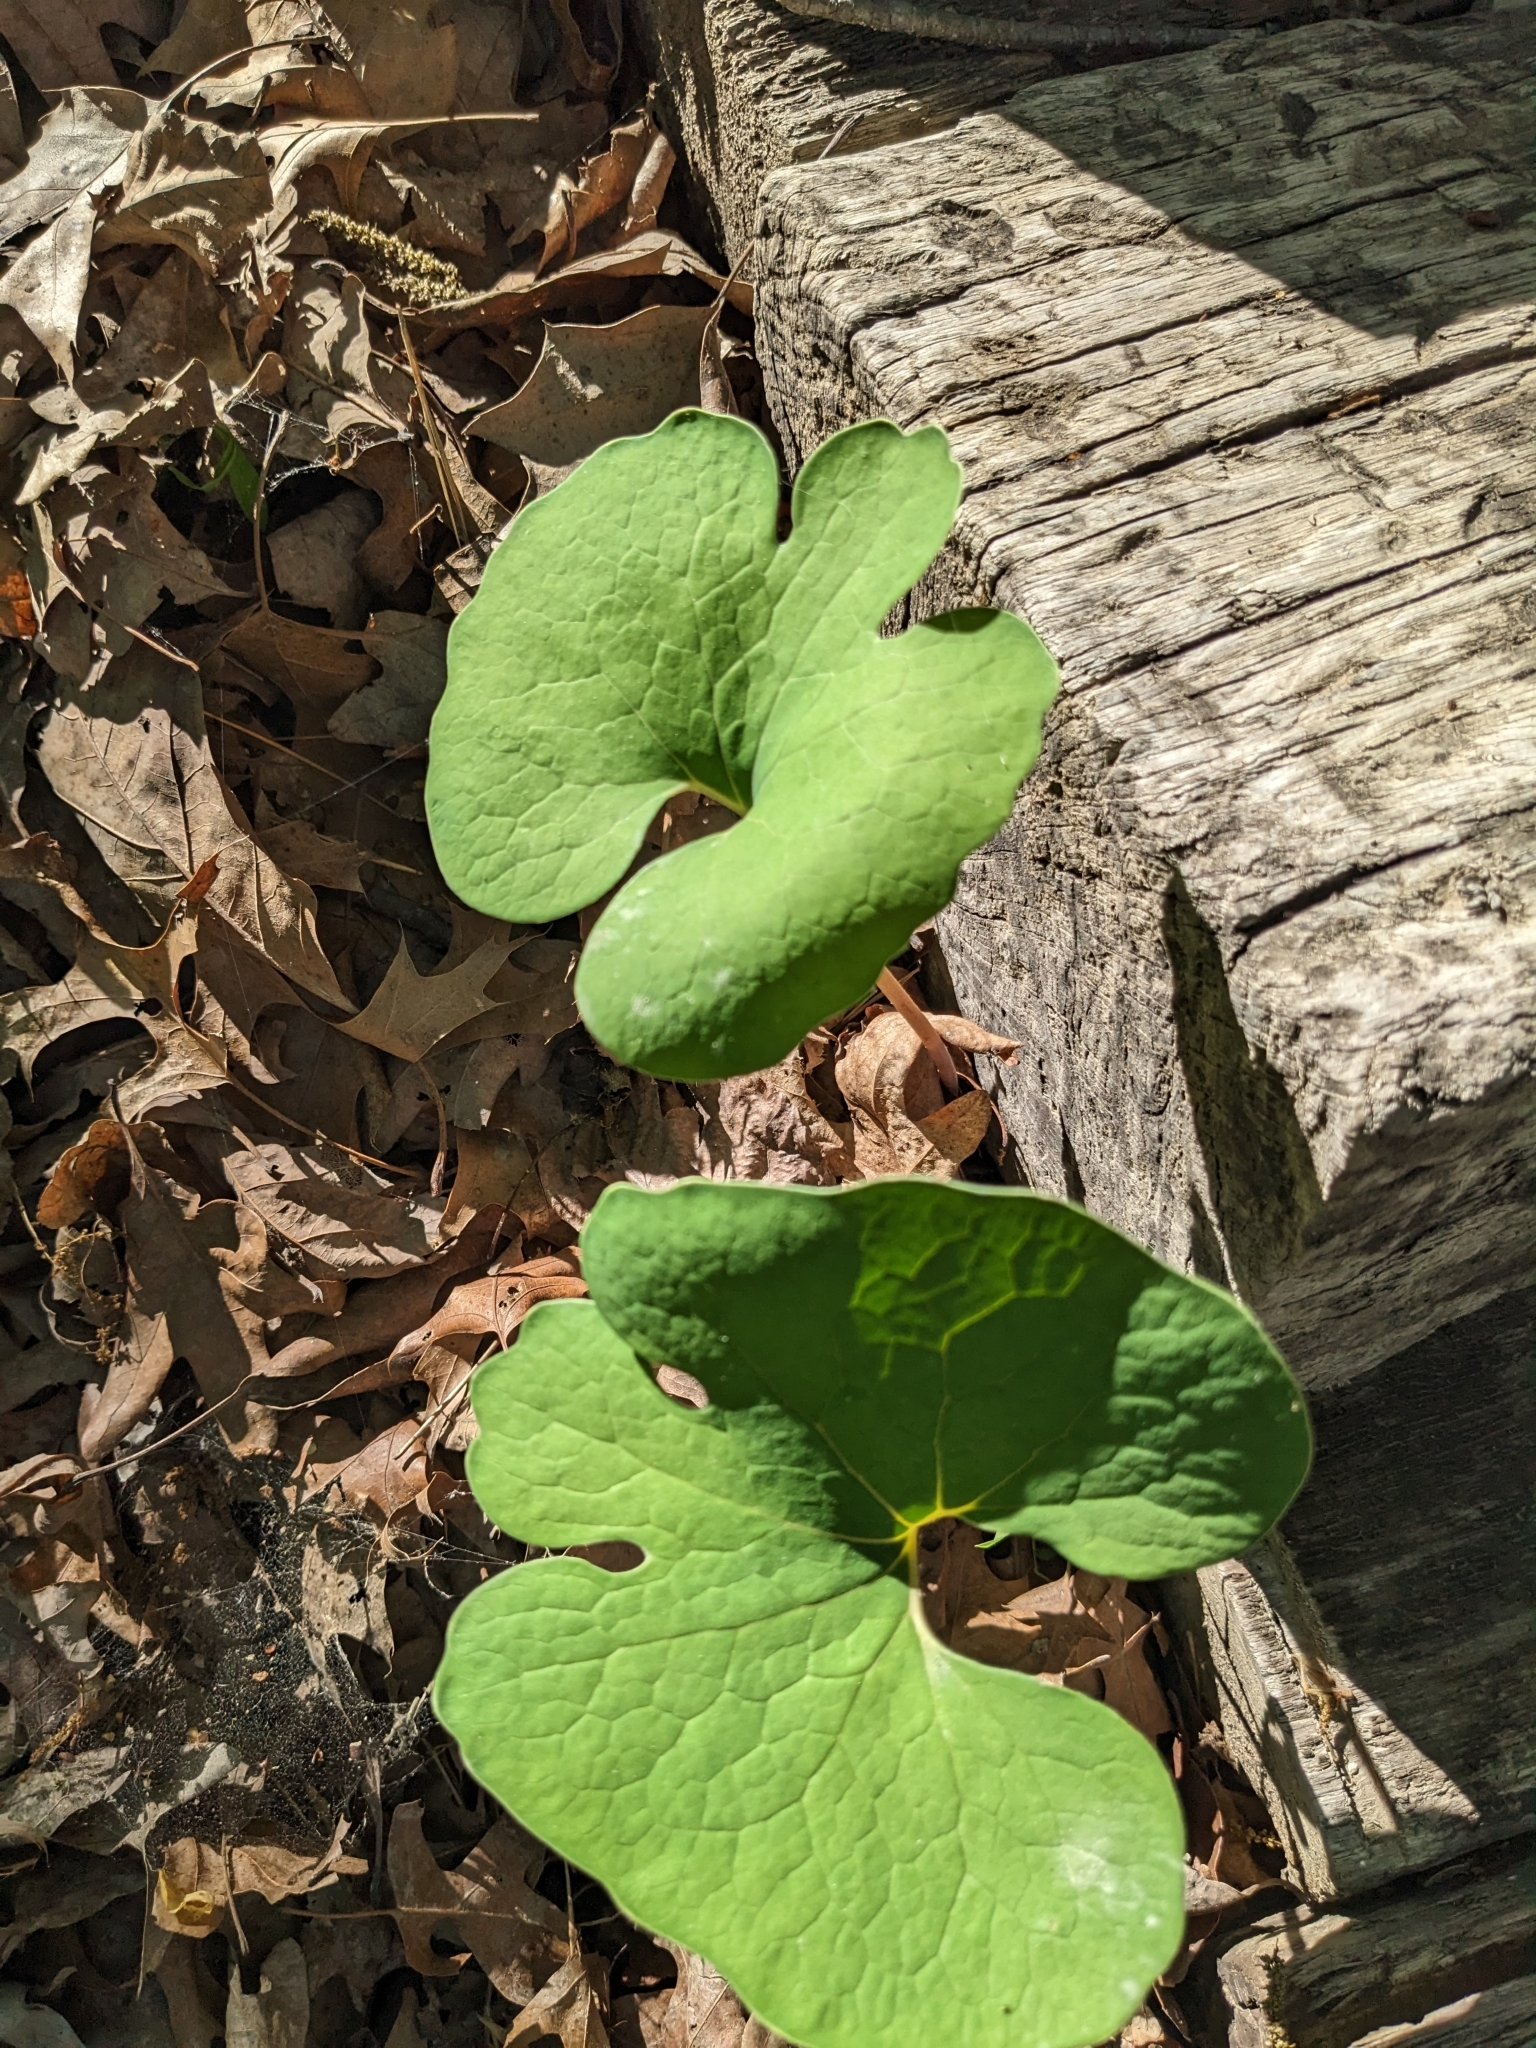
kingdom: Plantae
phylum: Tracheophyta
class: Magnoliopsida
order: Ranunculales
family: Papaveraceae
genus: Sanguinaria
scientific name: Sanguinaria canadensis
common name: Bloodroot
